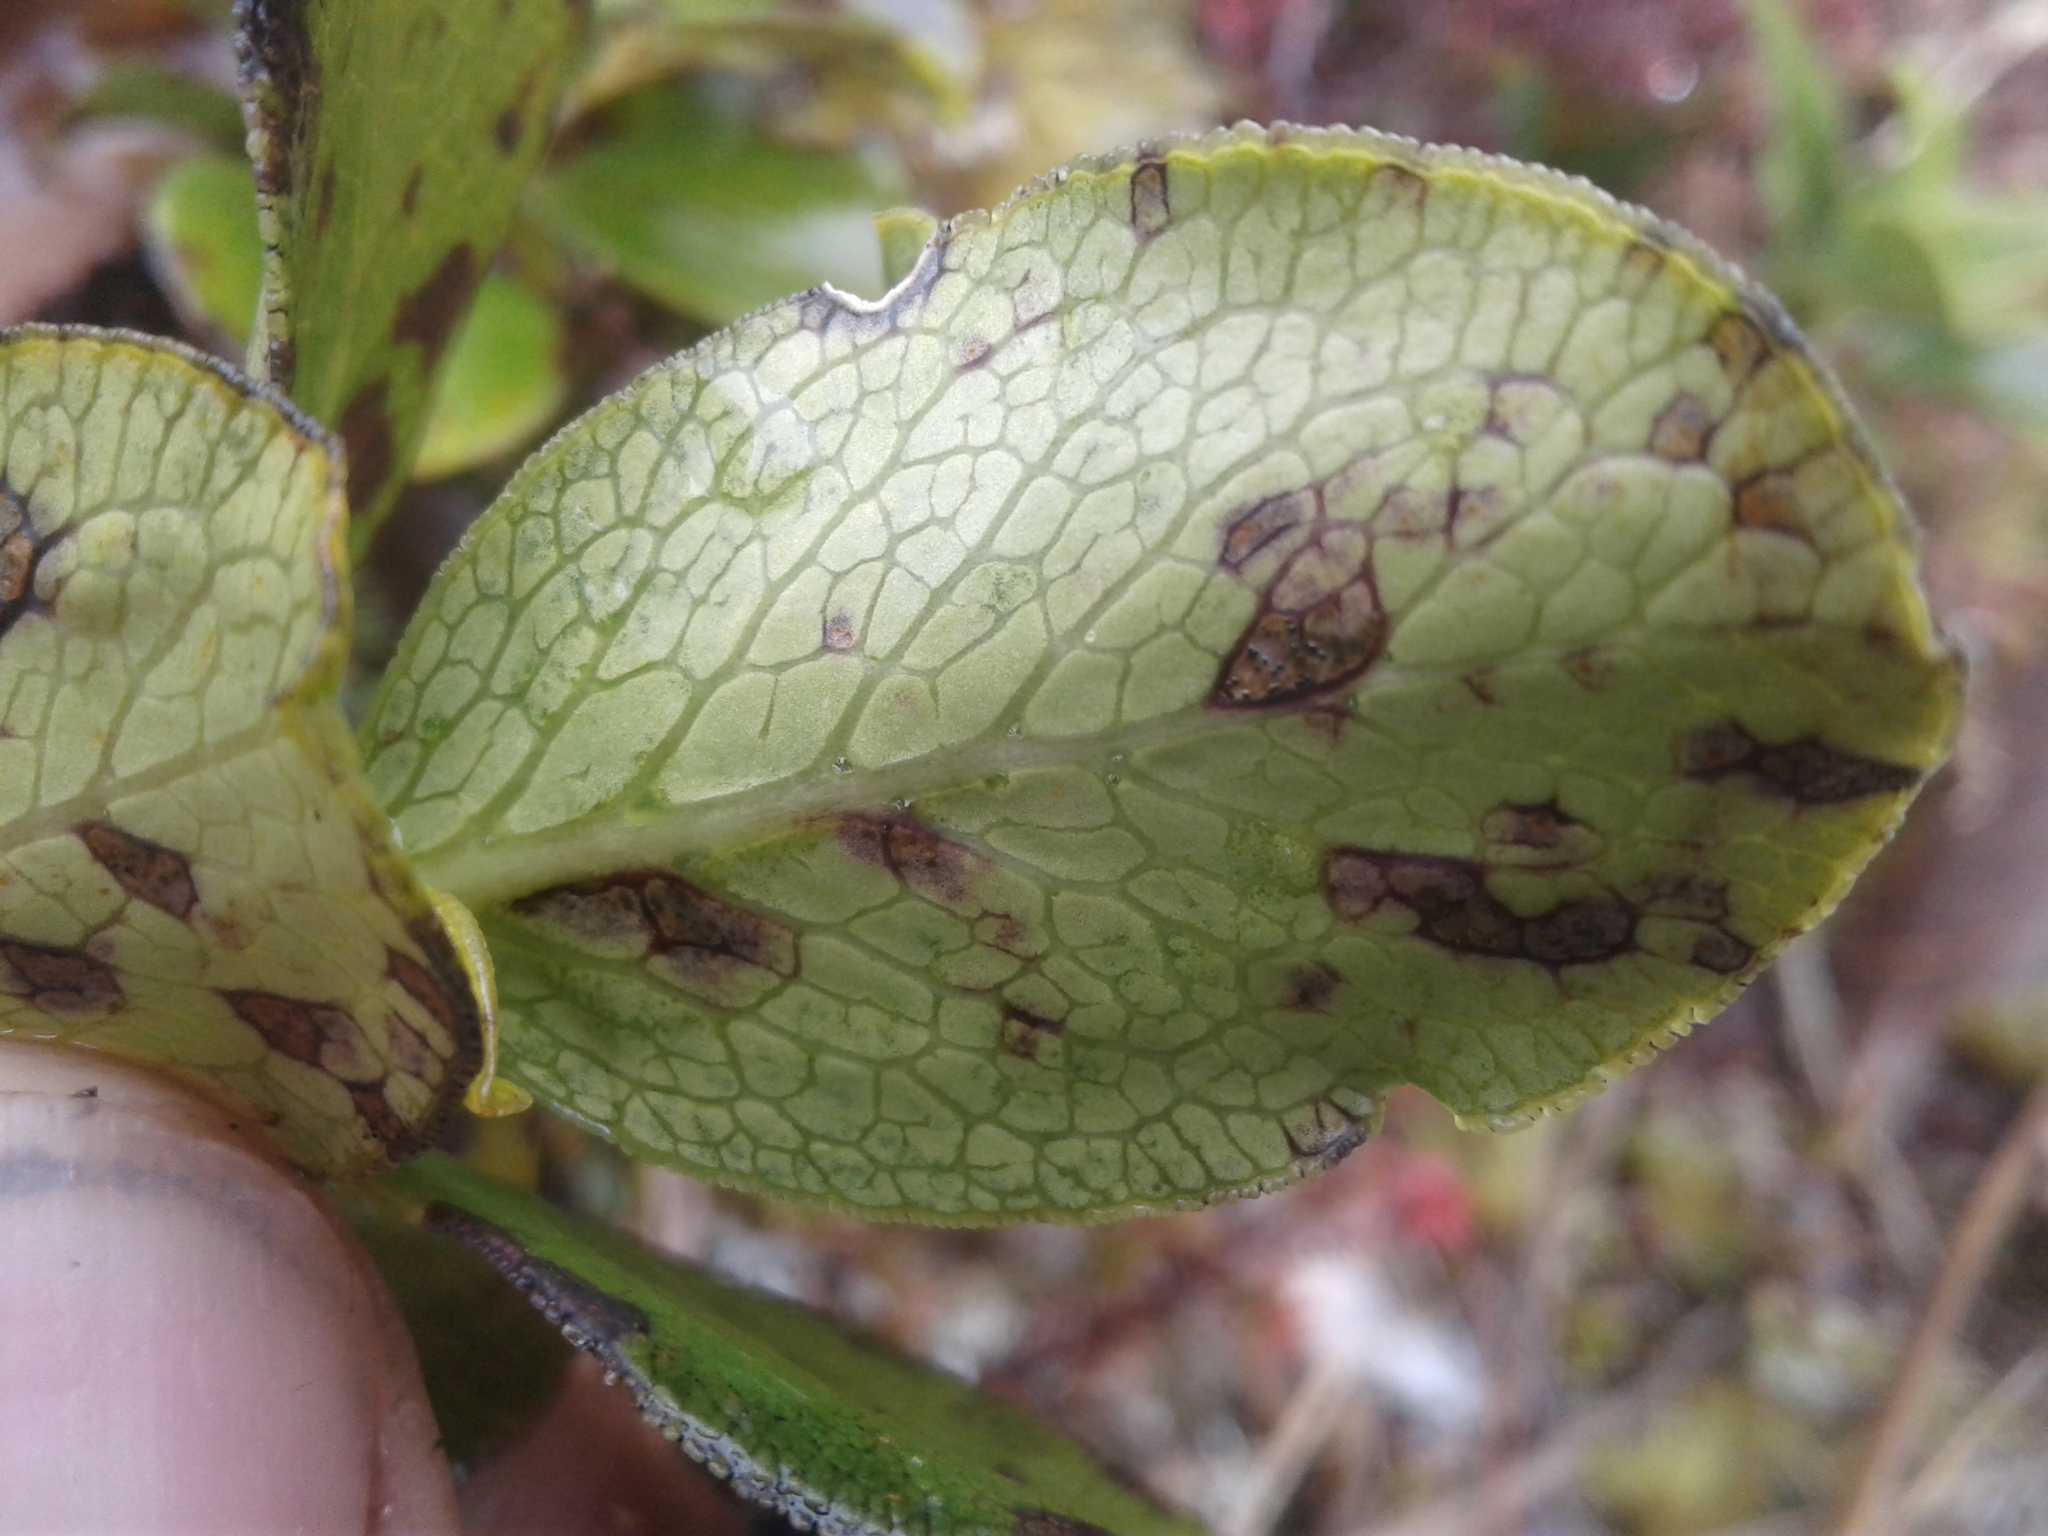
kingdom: Plantae
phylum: Tracheophyta
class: Magnoliopsida
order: Gentianales
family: Rubiaceae
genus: Coprosma
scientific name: Coprosma serrulata
